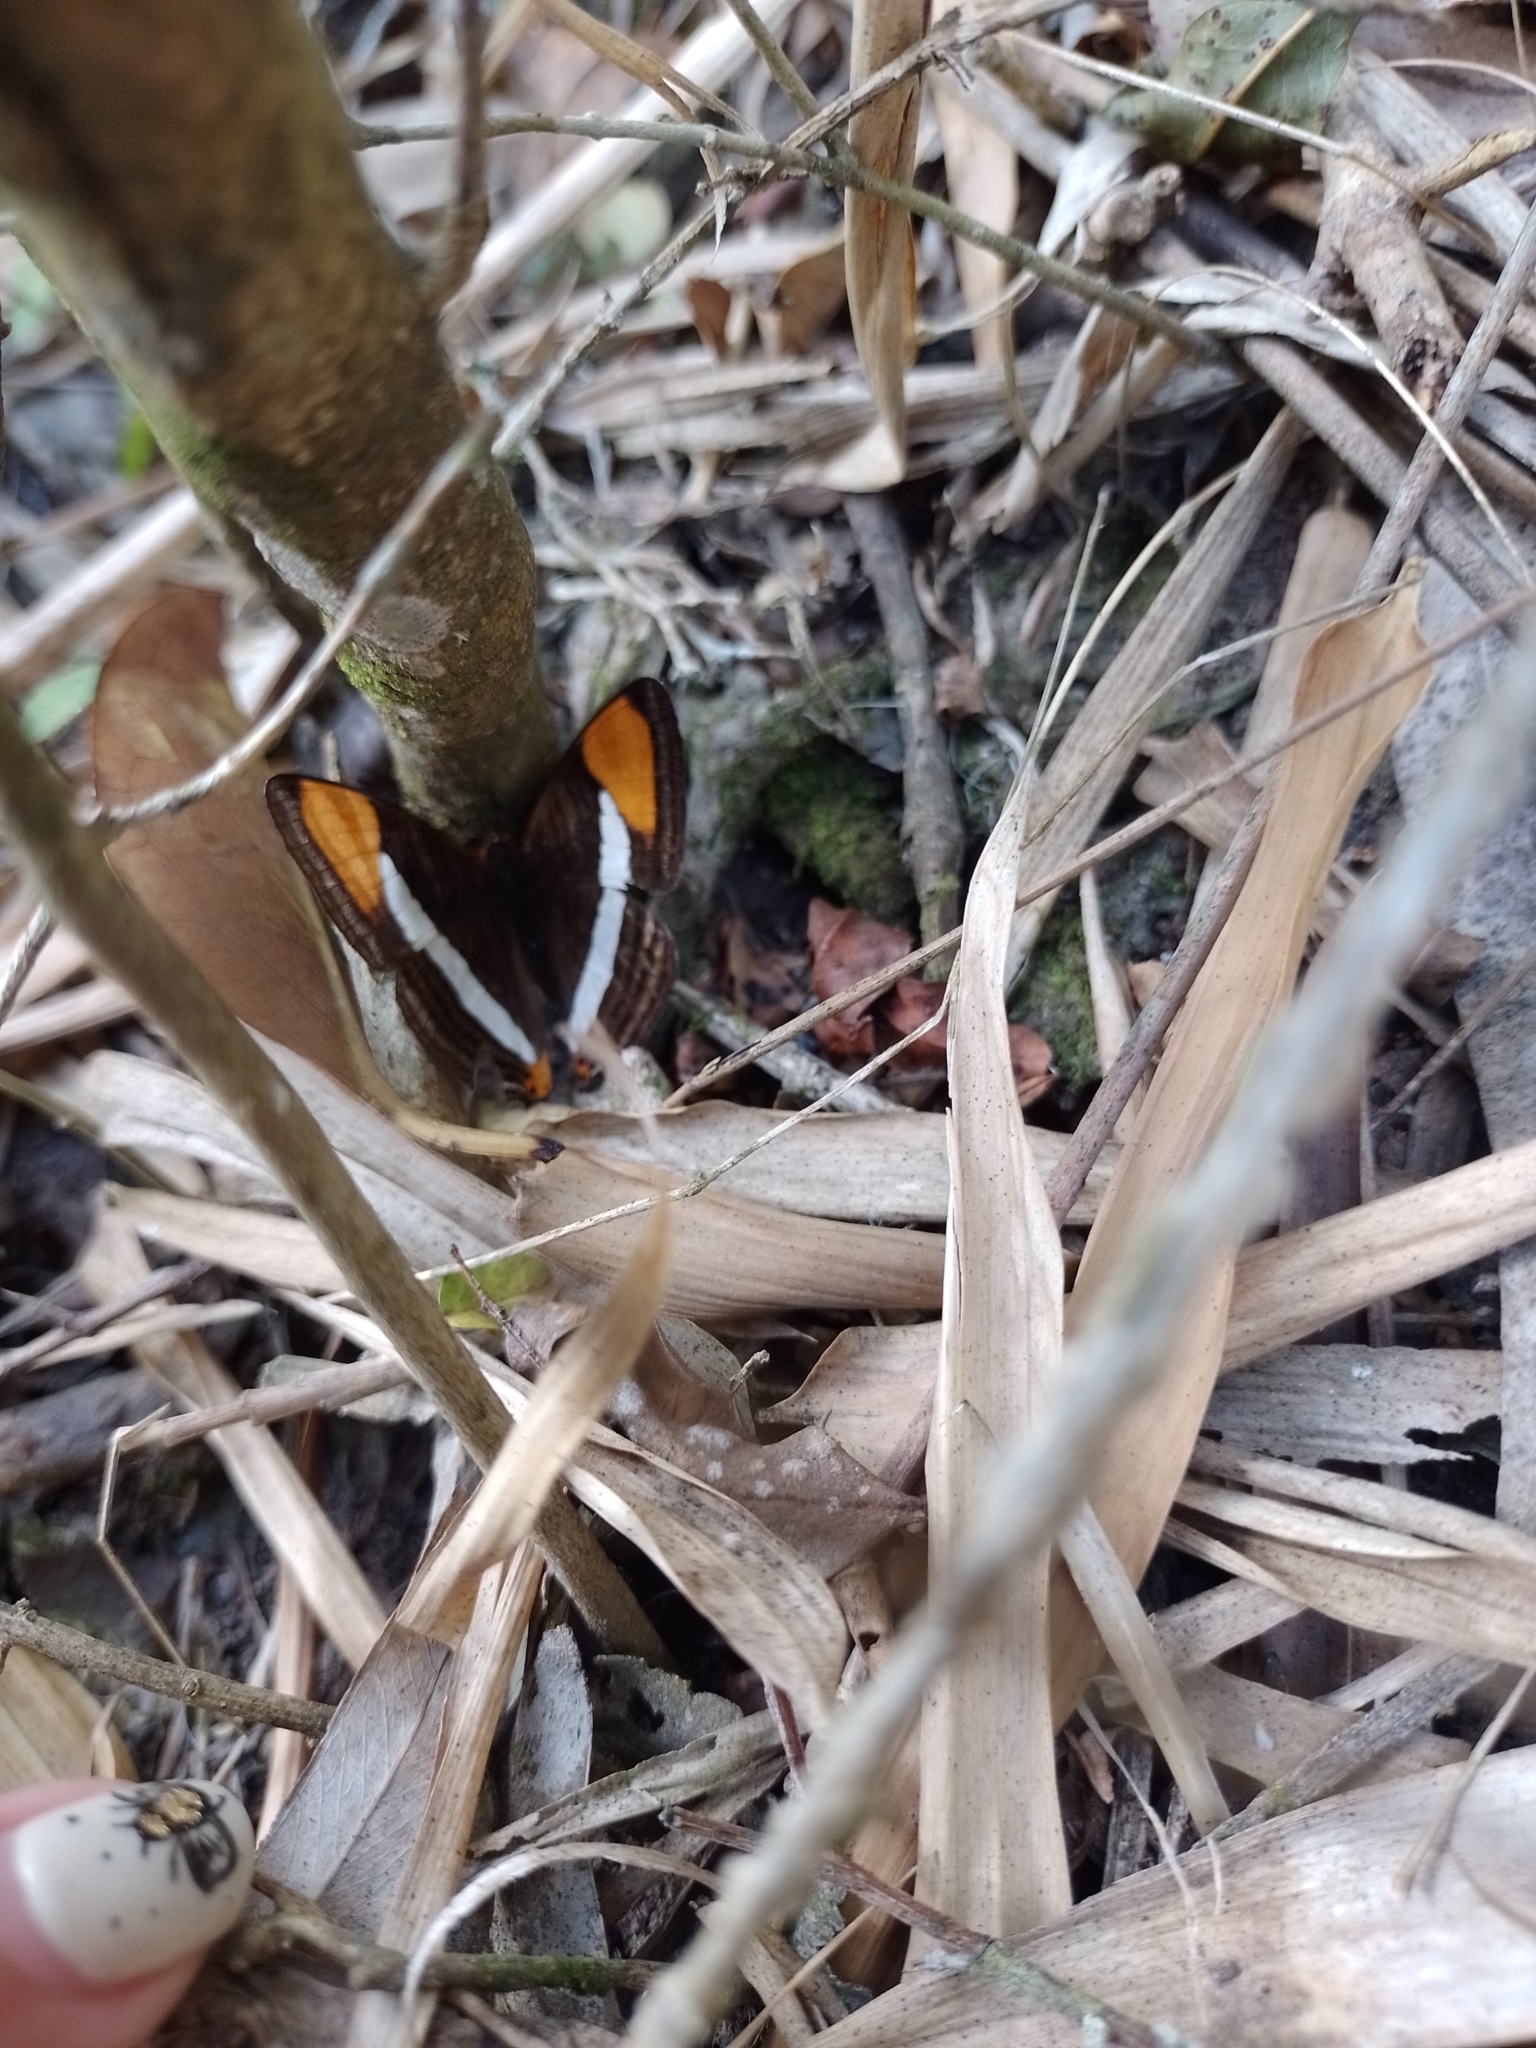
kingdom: Animalia
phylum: Arthropoda
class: Insecta
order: Lepidoptera
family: Nymphalidae
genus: Limenitis
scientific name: Limenitis syma
